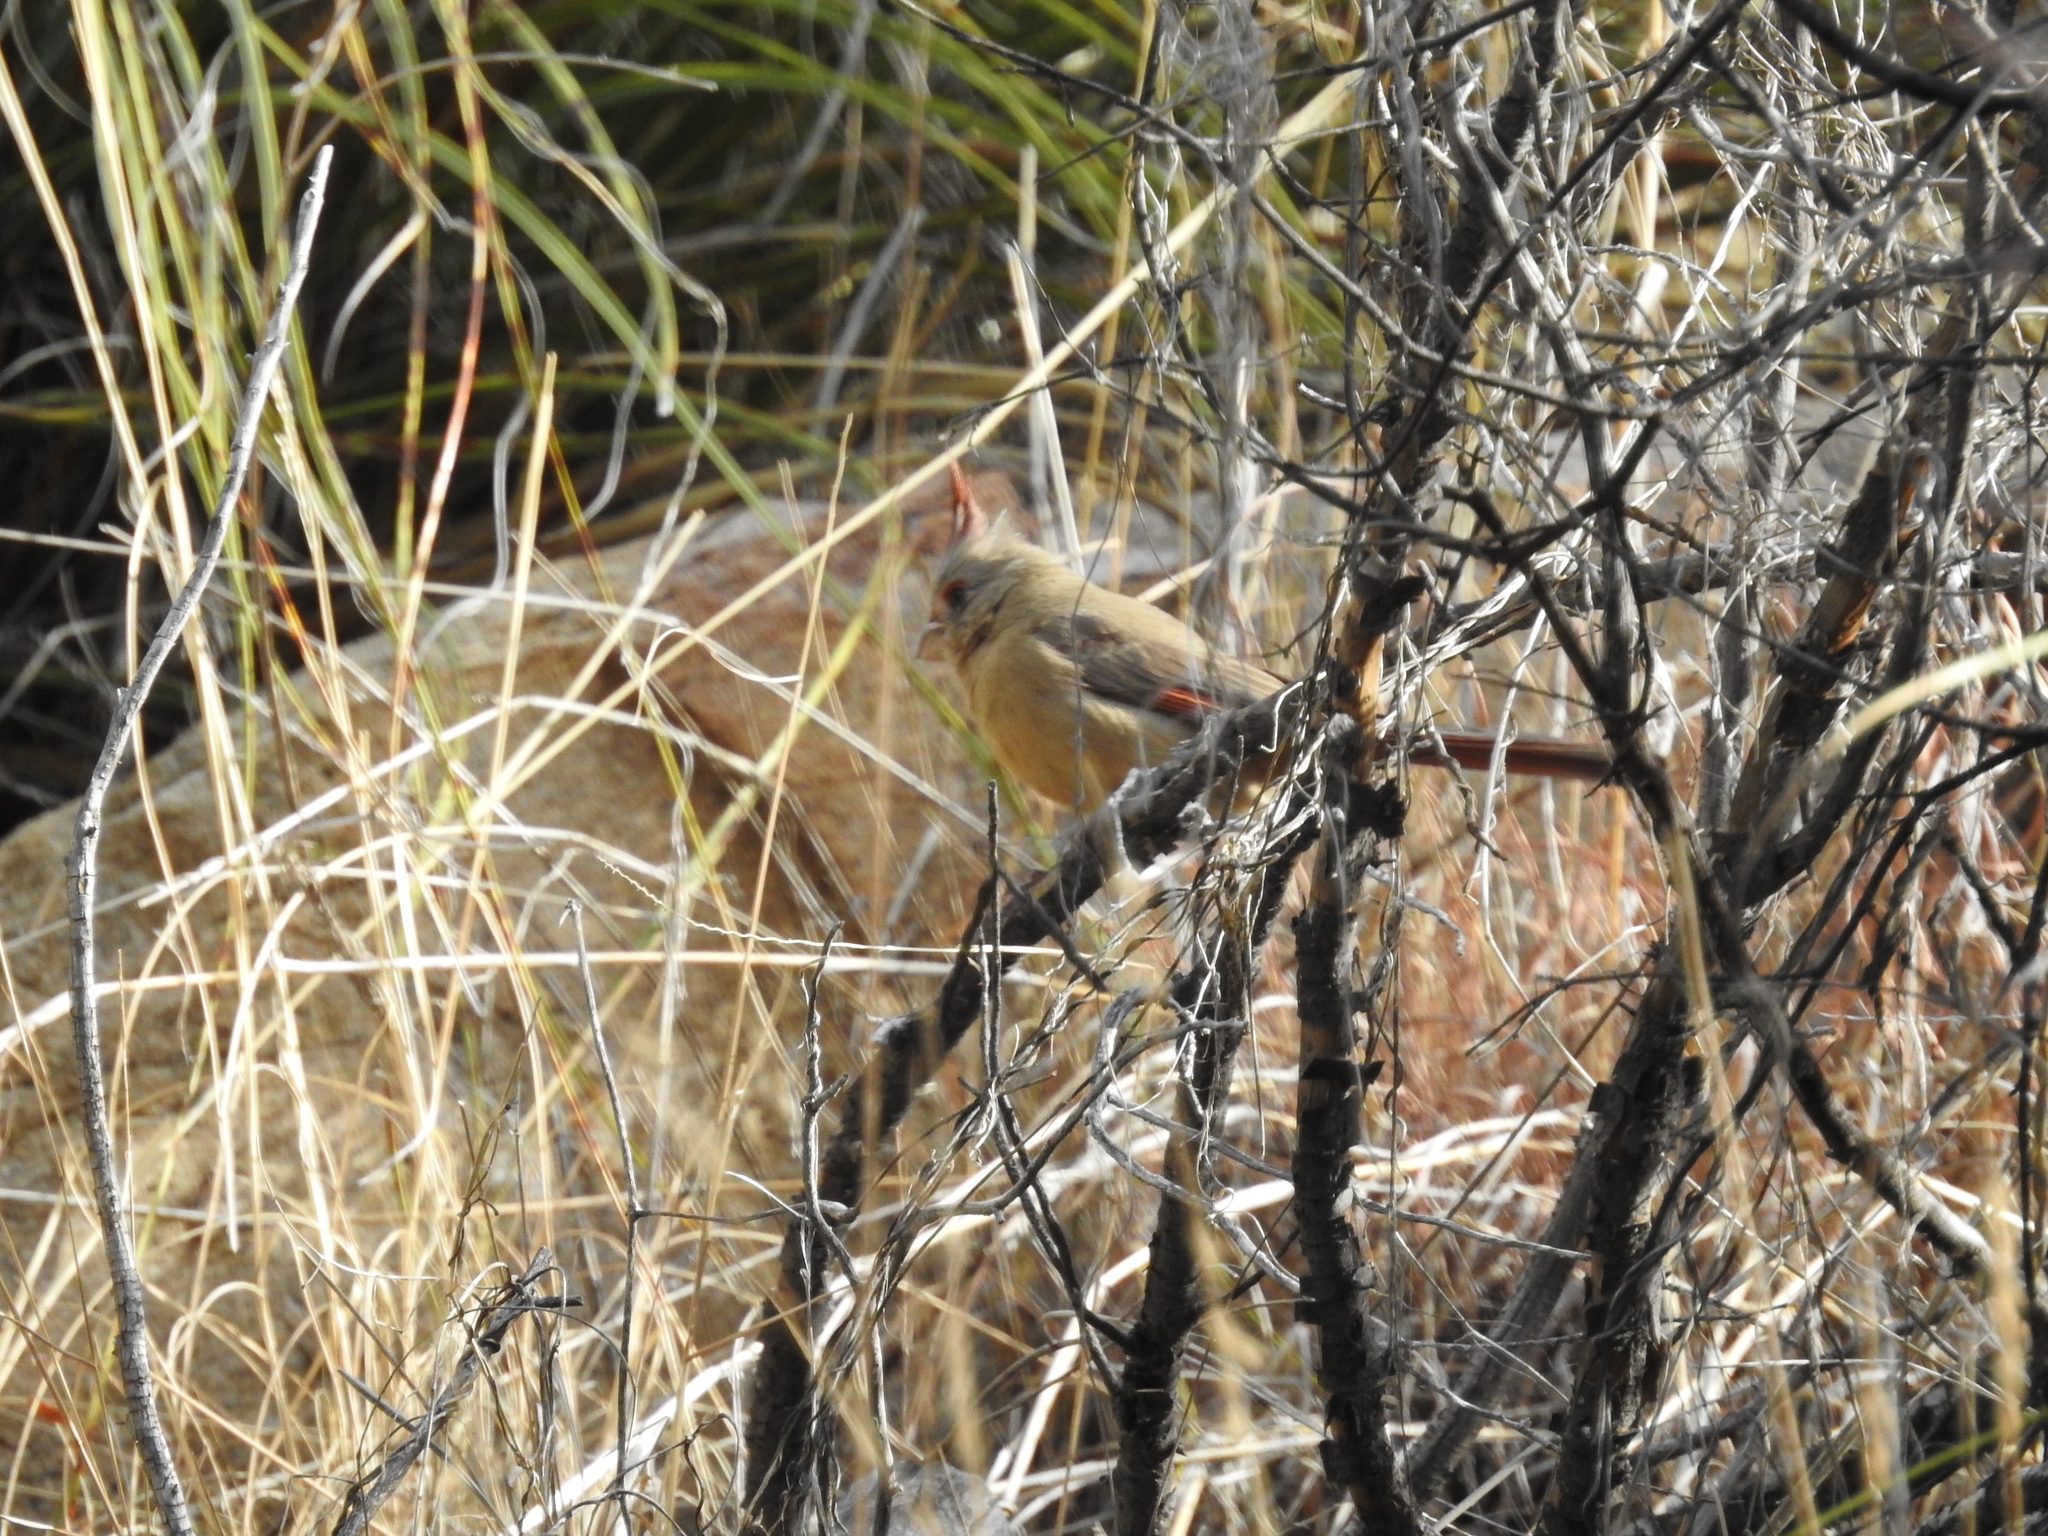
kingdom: Animalia
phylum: Chordata
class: Aves
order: Passeriformes
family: Cardinalidae
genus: Cardinalis
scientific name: Cardinalis sinuatus
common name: Pyrrhuloxia
